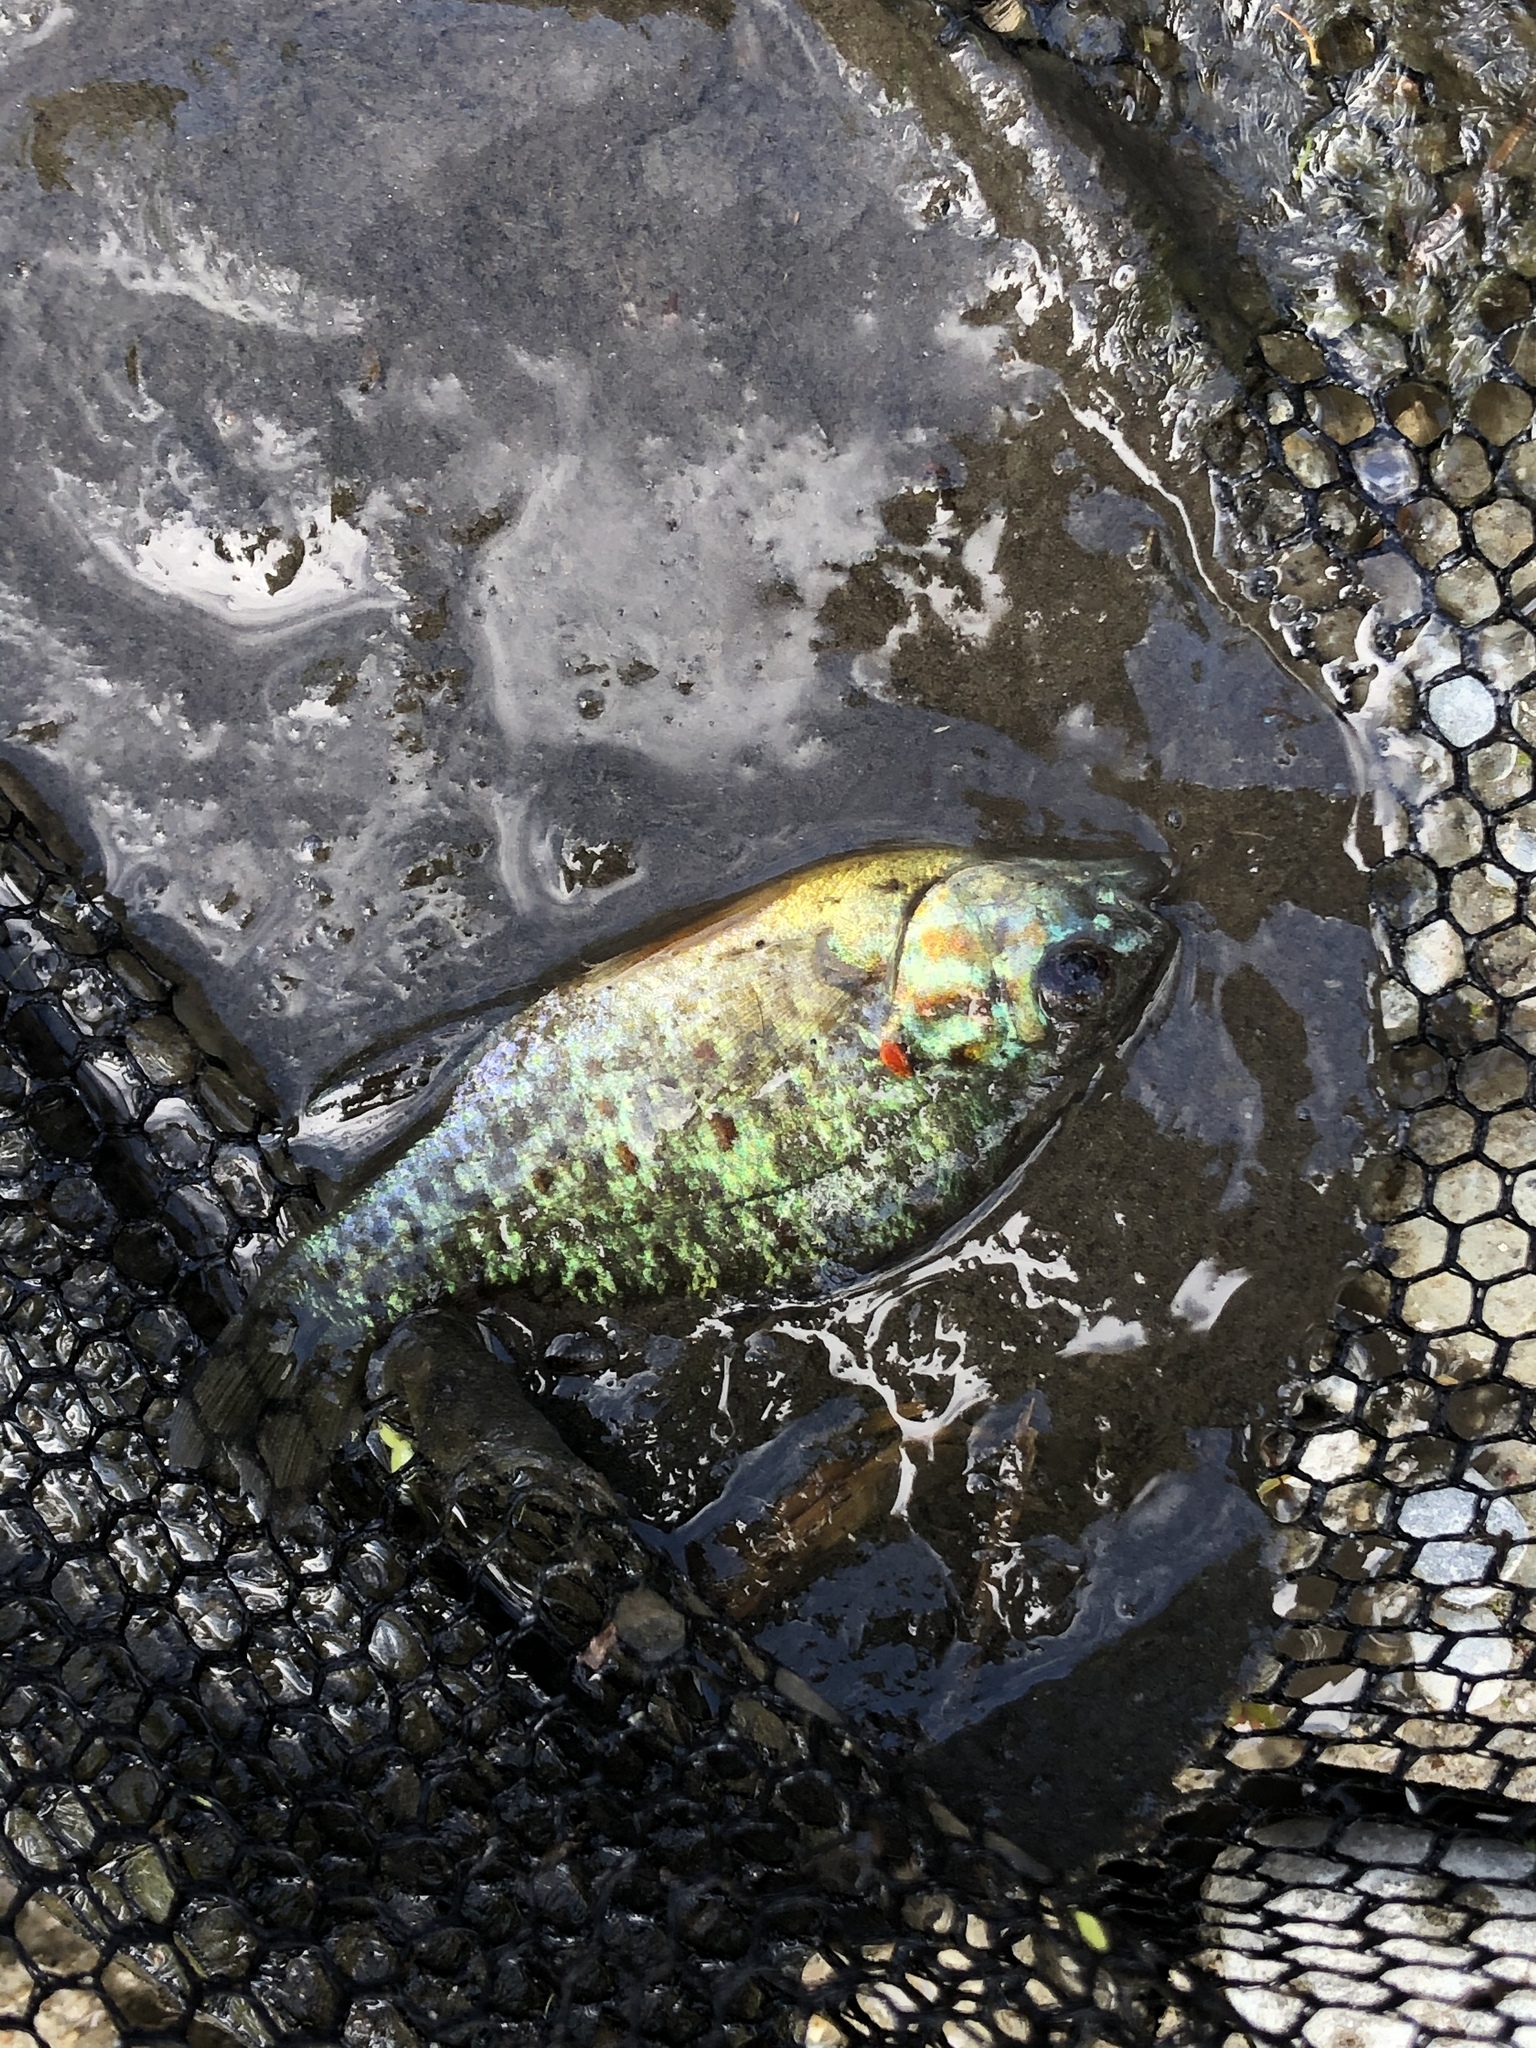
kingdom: Animalia
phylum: Chordata
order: Perciformes
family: Centrarchidae
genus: Lepomis
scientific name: Lepomis gibbosus
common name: Pumpkinseed
